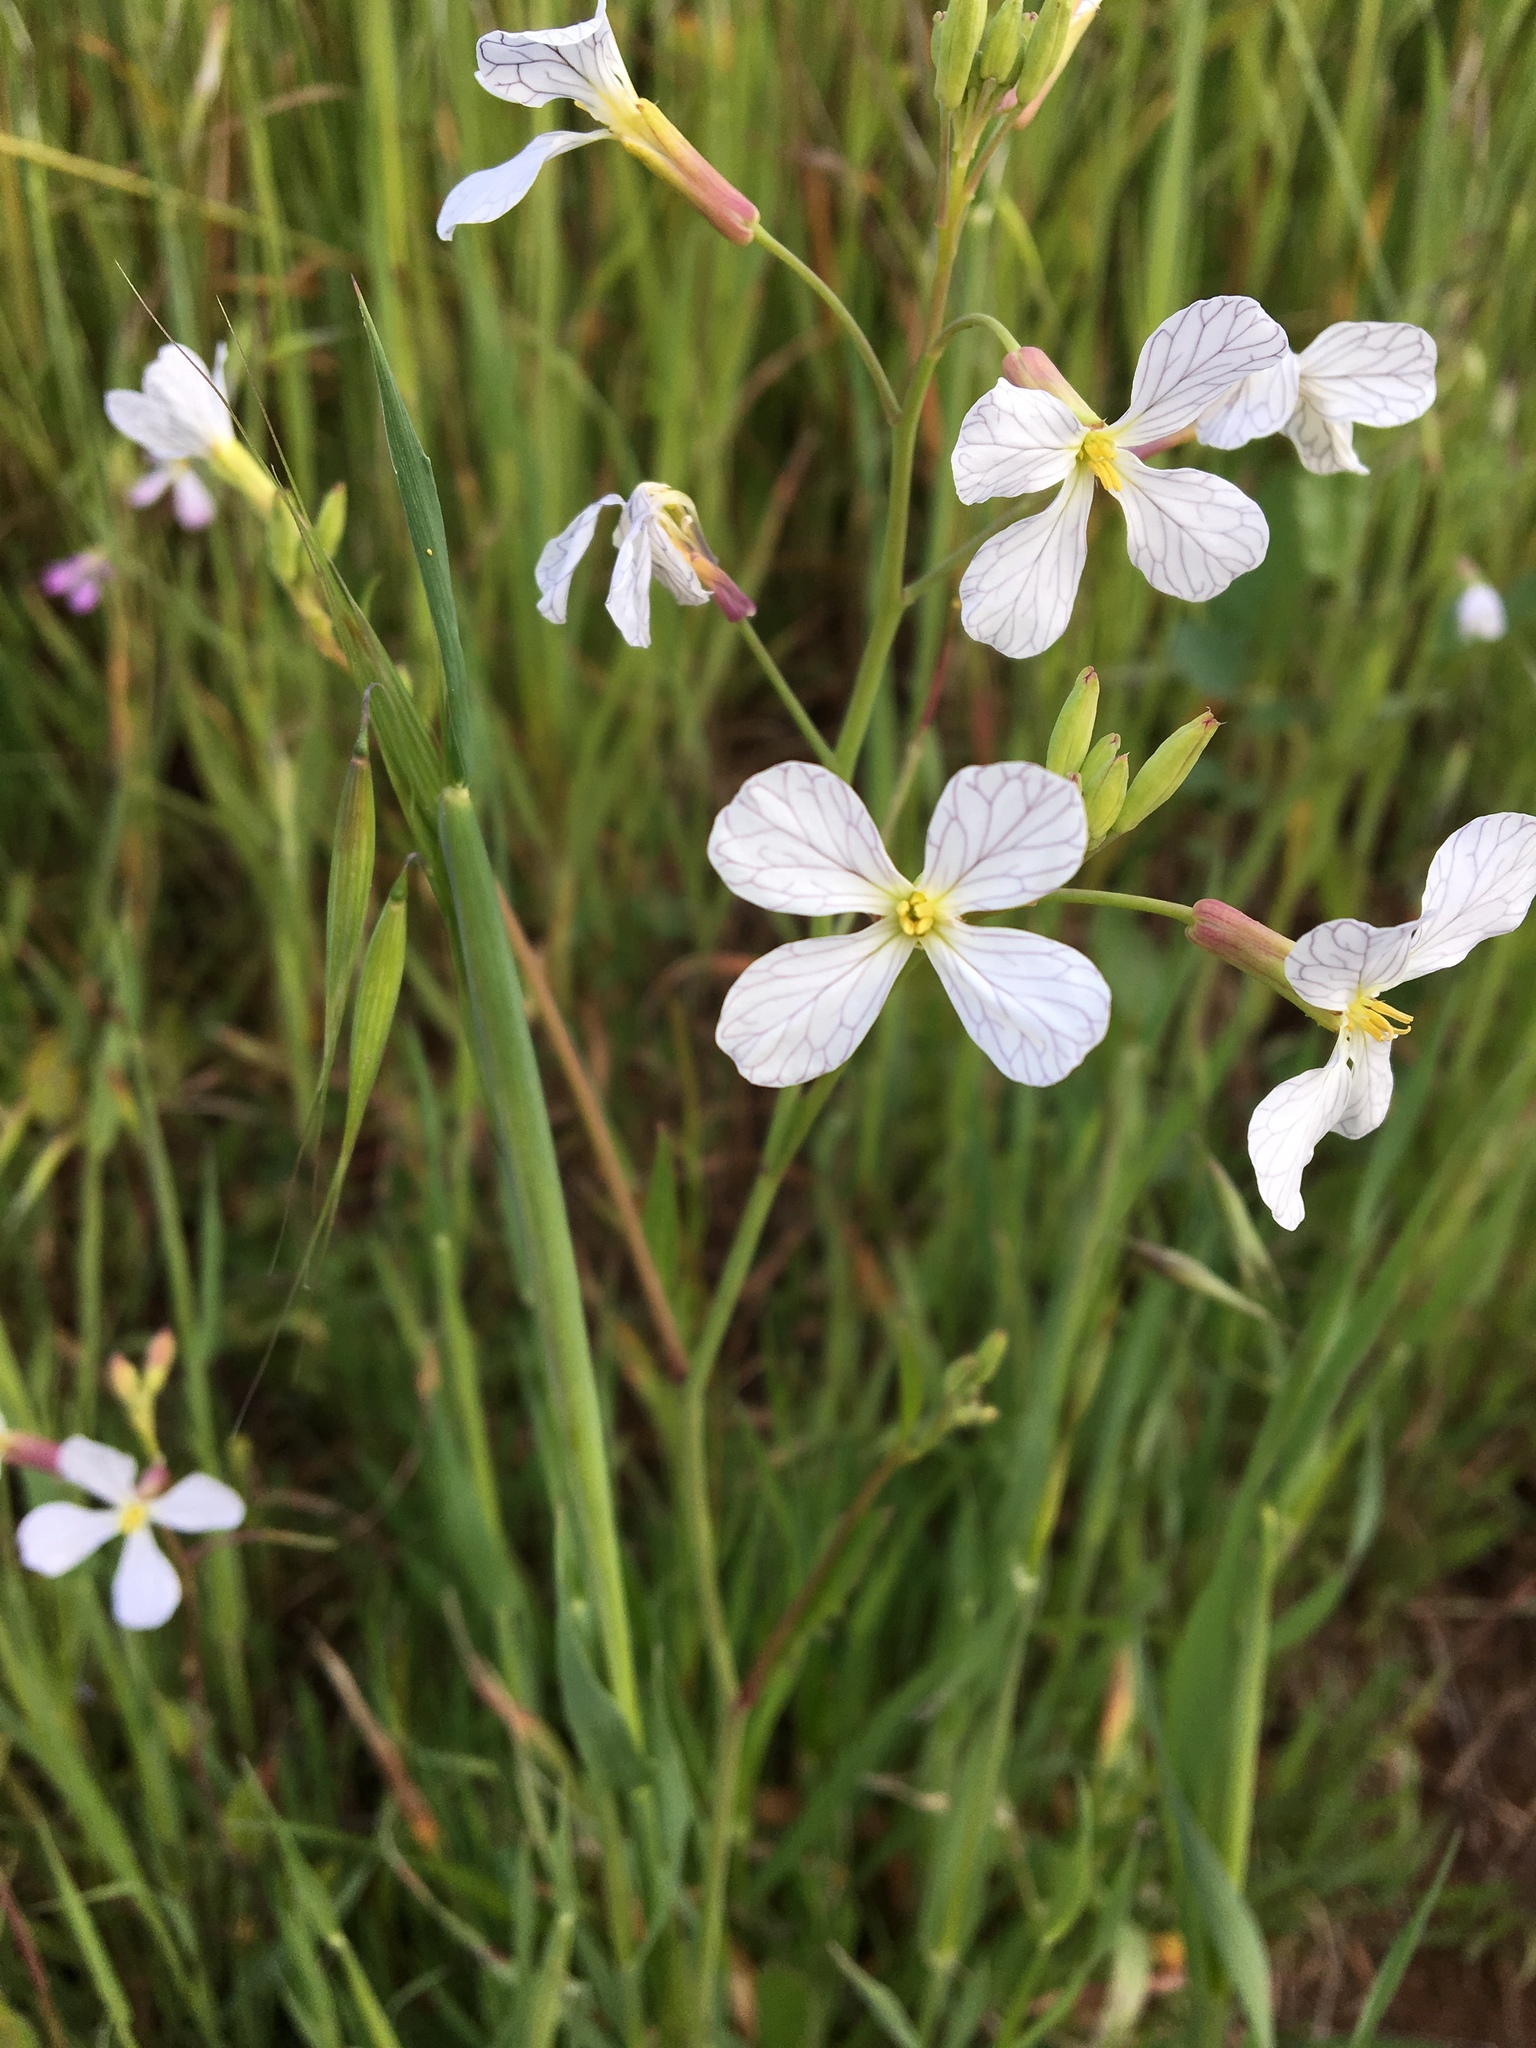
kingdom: Plantae
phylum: Tracheophyta
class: Magnoliopsida
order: Brassicales
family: Brassicaceae
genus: Raphanus
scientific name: Raphanus sativus
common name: Cultivated radish
